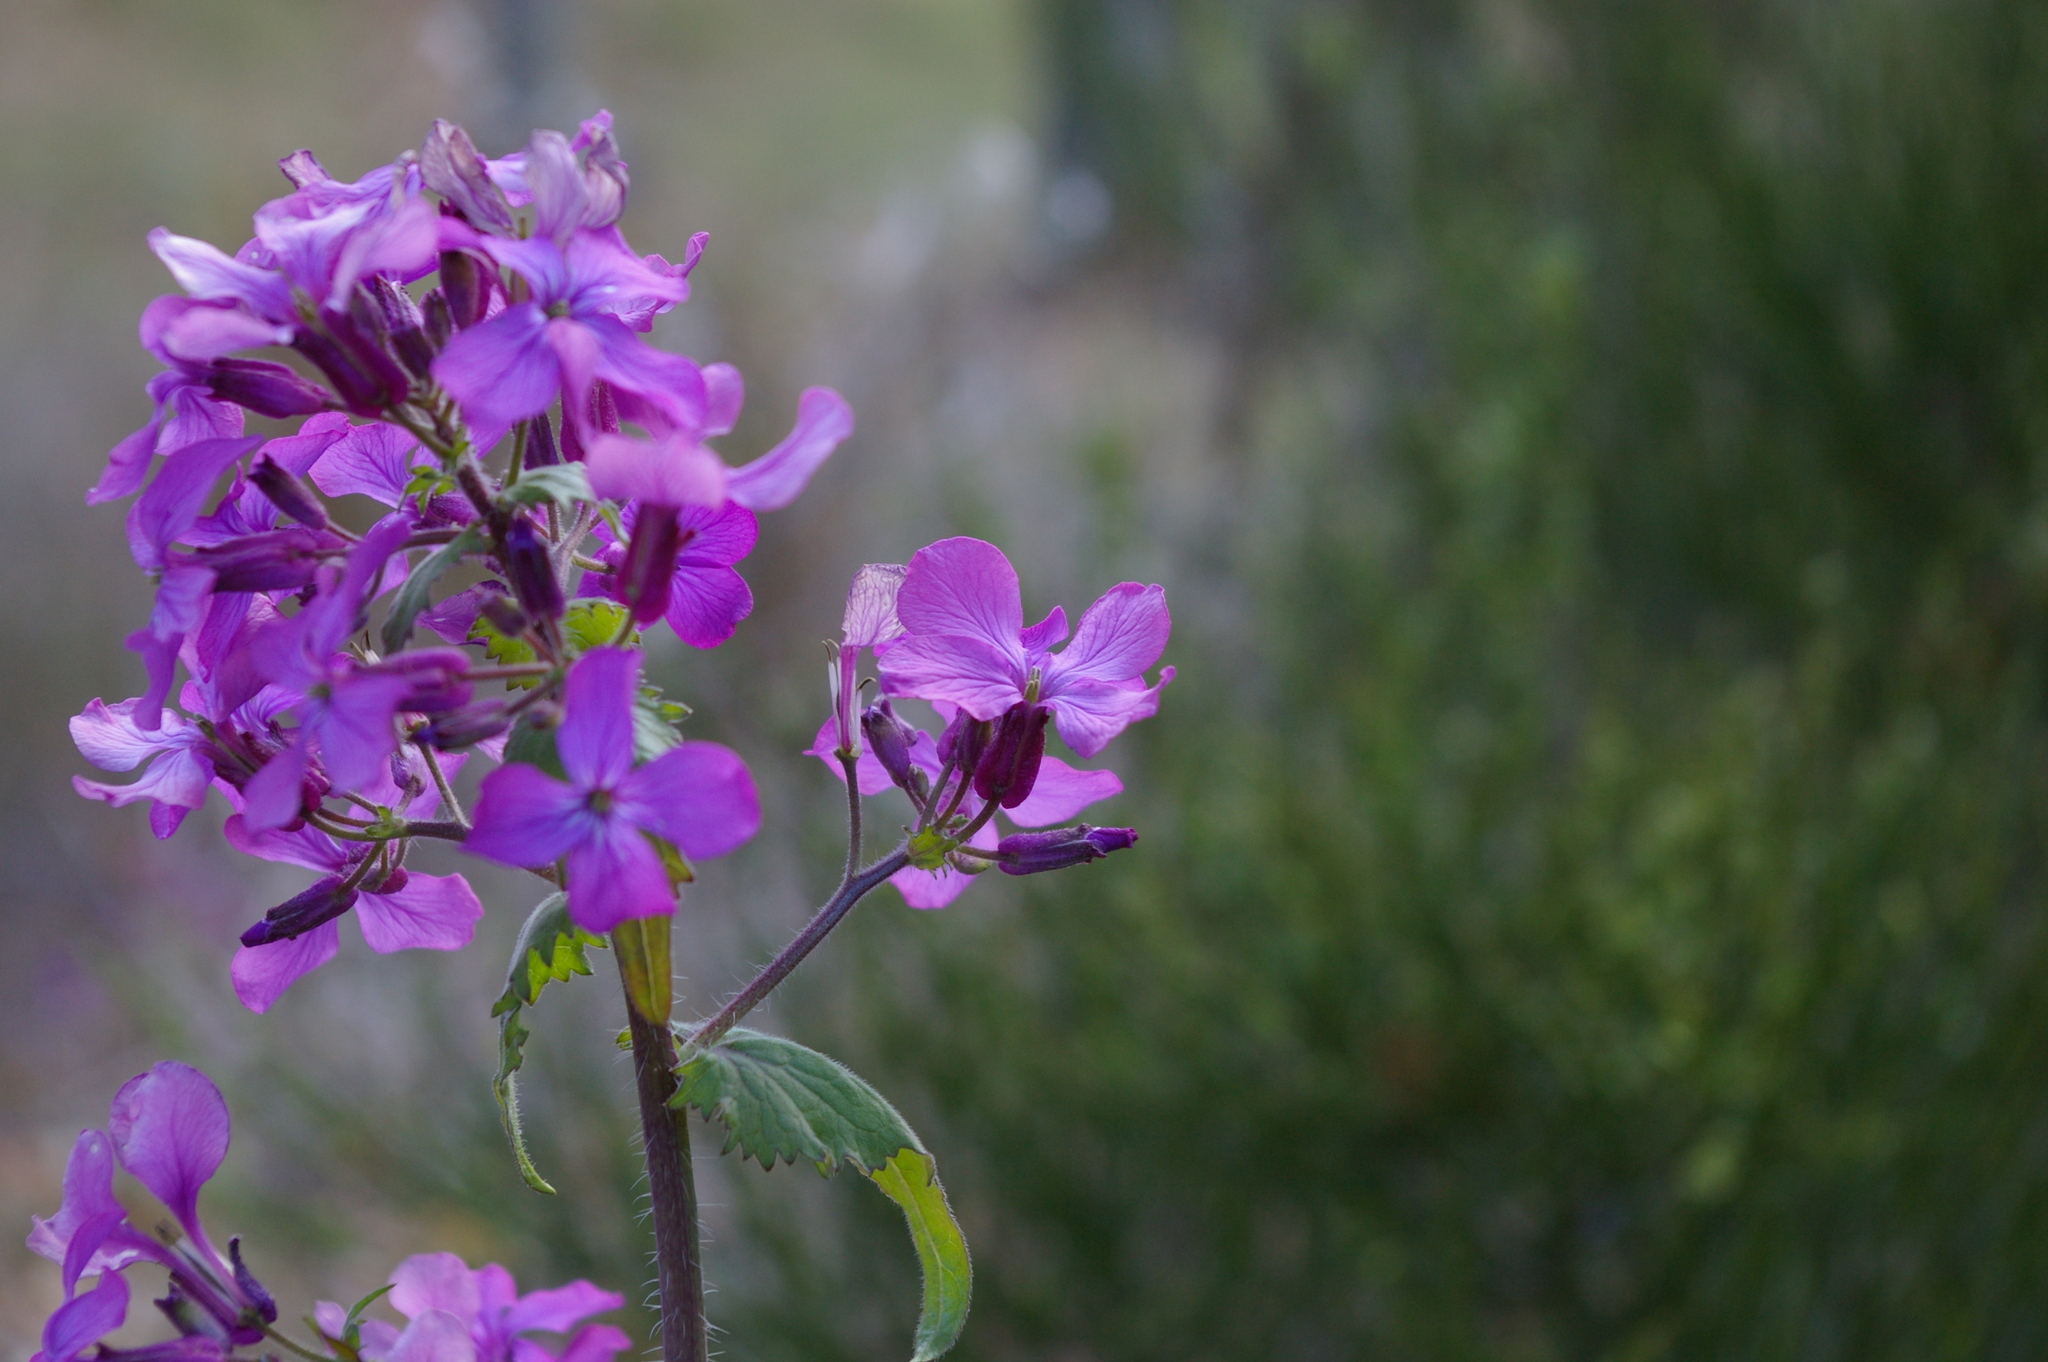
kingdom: Plantae
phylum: Tracheophyta
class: Magnoliopsida
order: Brassicales
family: Brassicaceae
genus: Lunaria
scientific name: Lunaria annua
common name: Honesty
